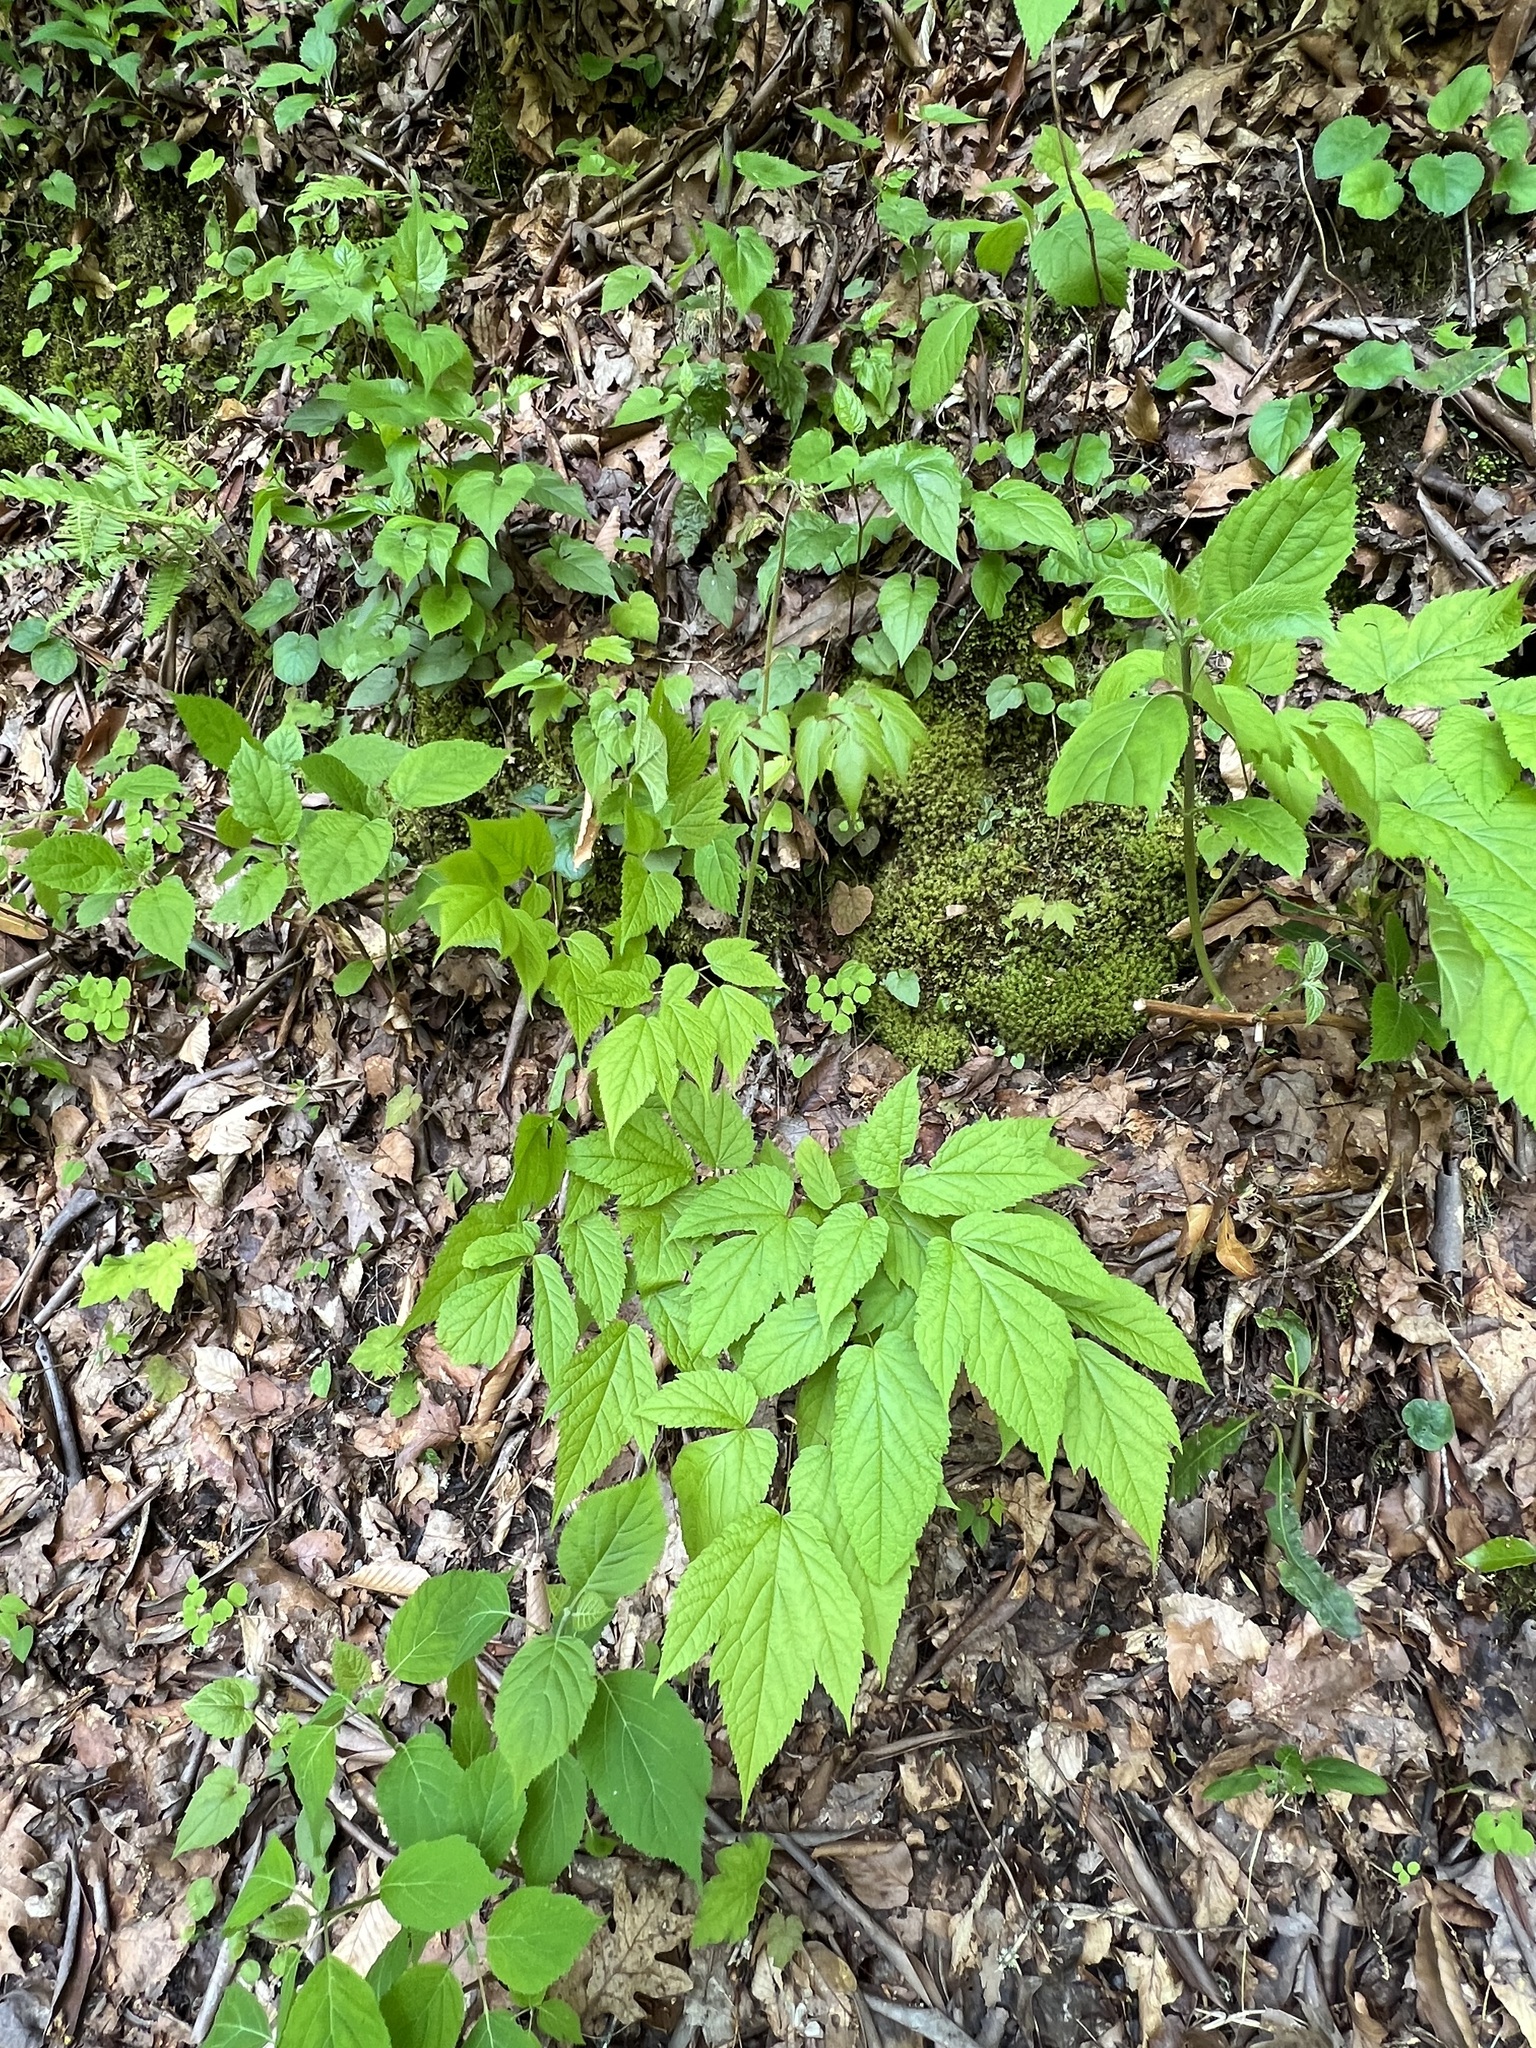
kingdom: Plantae
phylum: Tracheophyta
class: Magnoliopsida
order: Saxifragales
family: Saxifragaceae
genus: Astilbe
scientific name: Astilbe biternata
